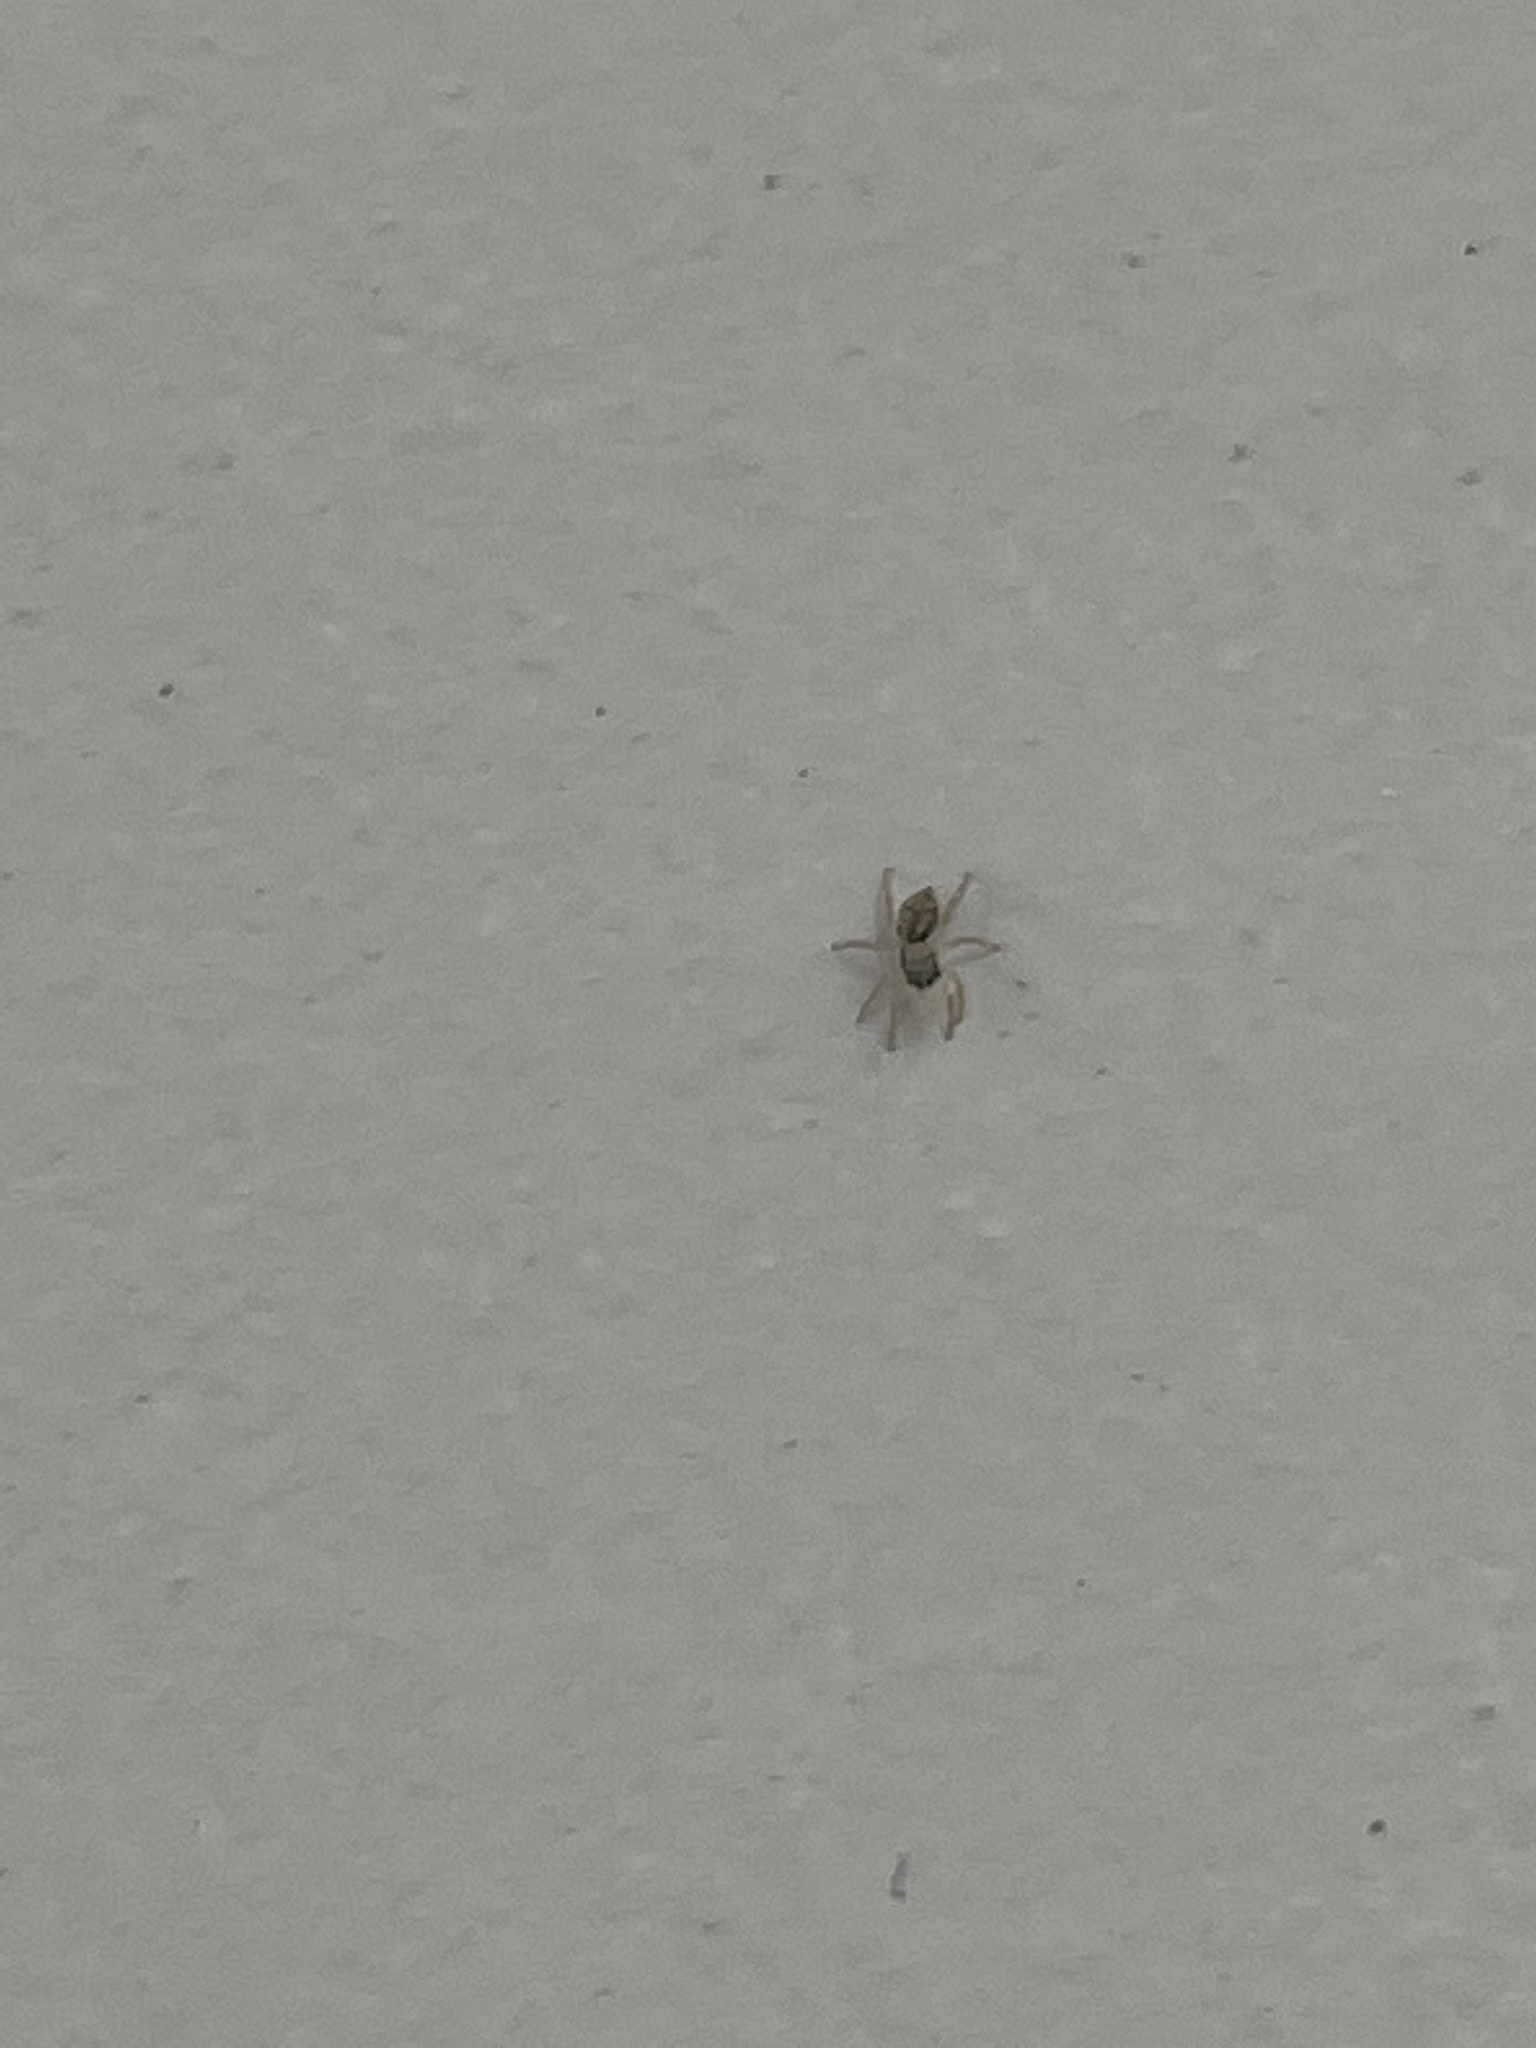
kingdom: Animalia
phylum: Arthropoda
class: Arachnida
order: Araneae
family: Salticidae
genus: Menemerus
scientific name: Menemerus bivittatus
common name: Gray wall jumper
